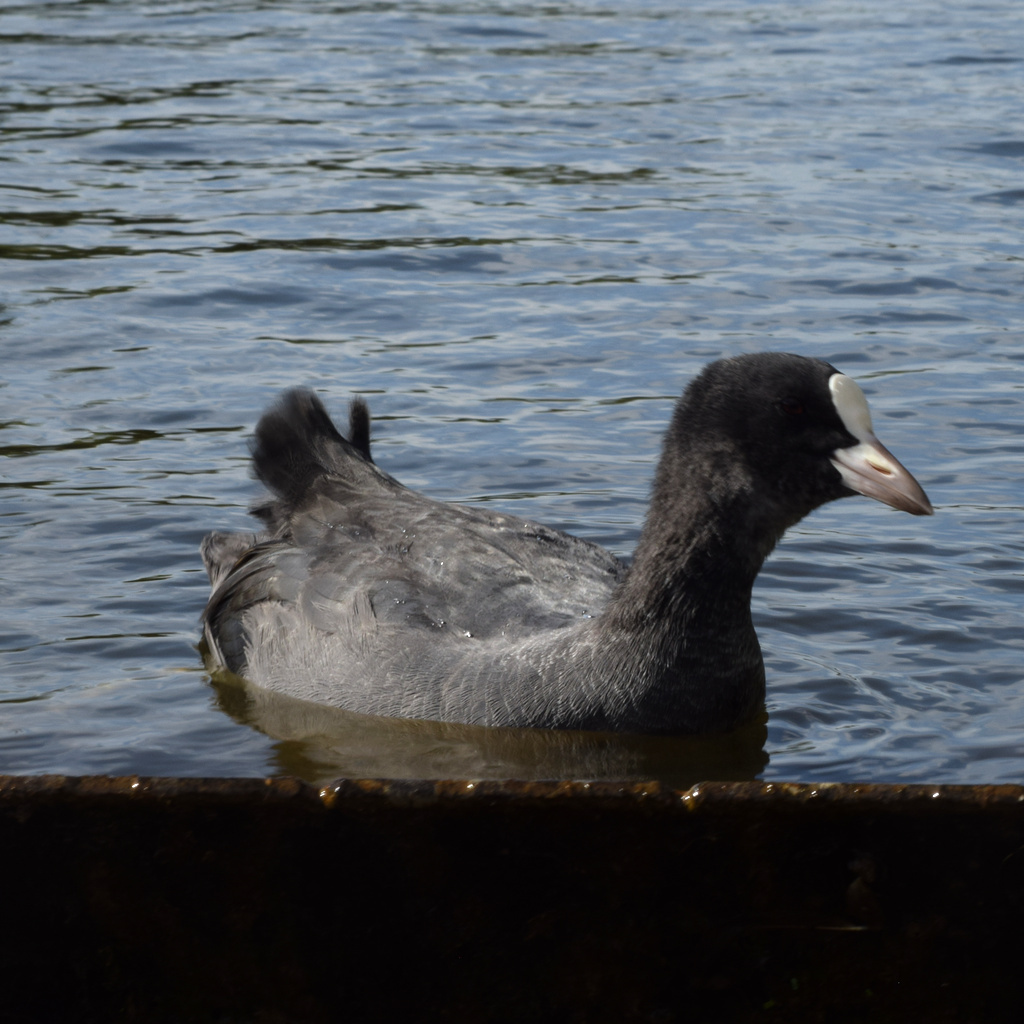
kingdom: Animalia
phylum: Chordata
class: Aves
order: Gruiformes
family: Rallidae
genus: Fulica
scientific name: Fulica atra
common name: Eurasian coot
